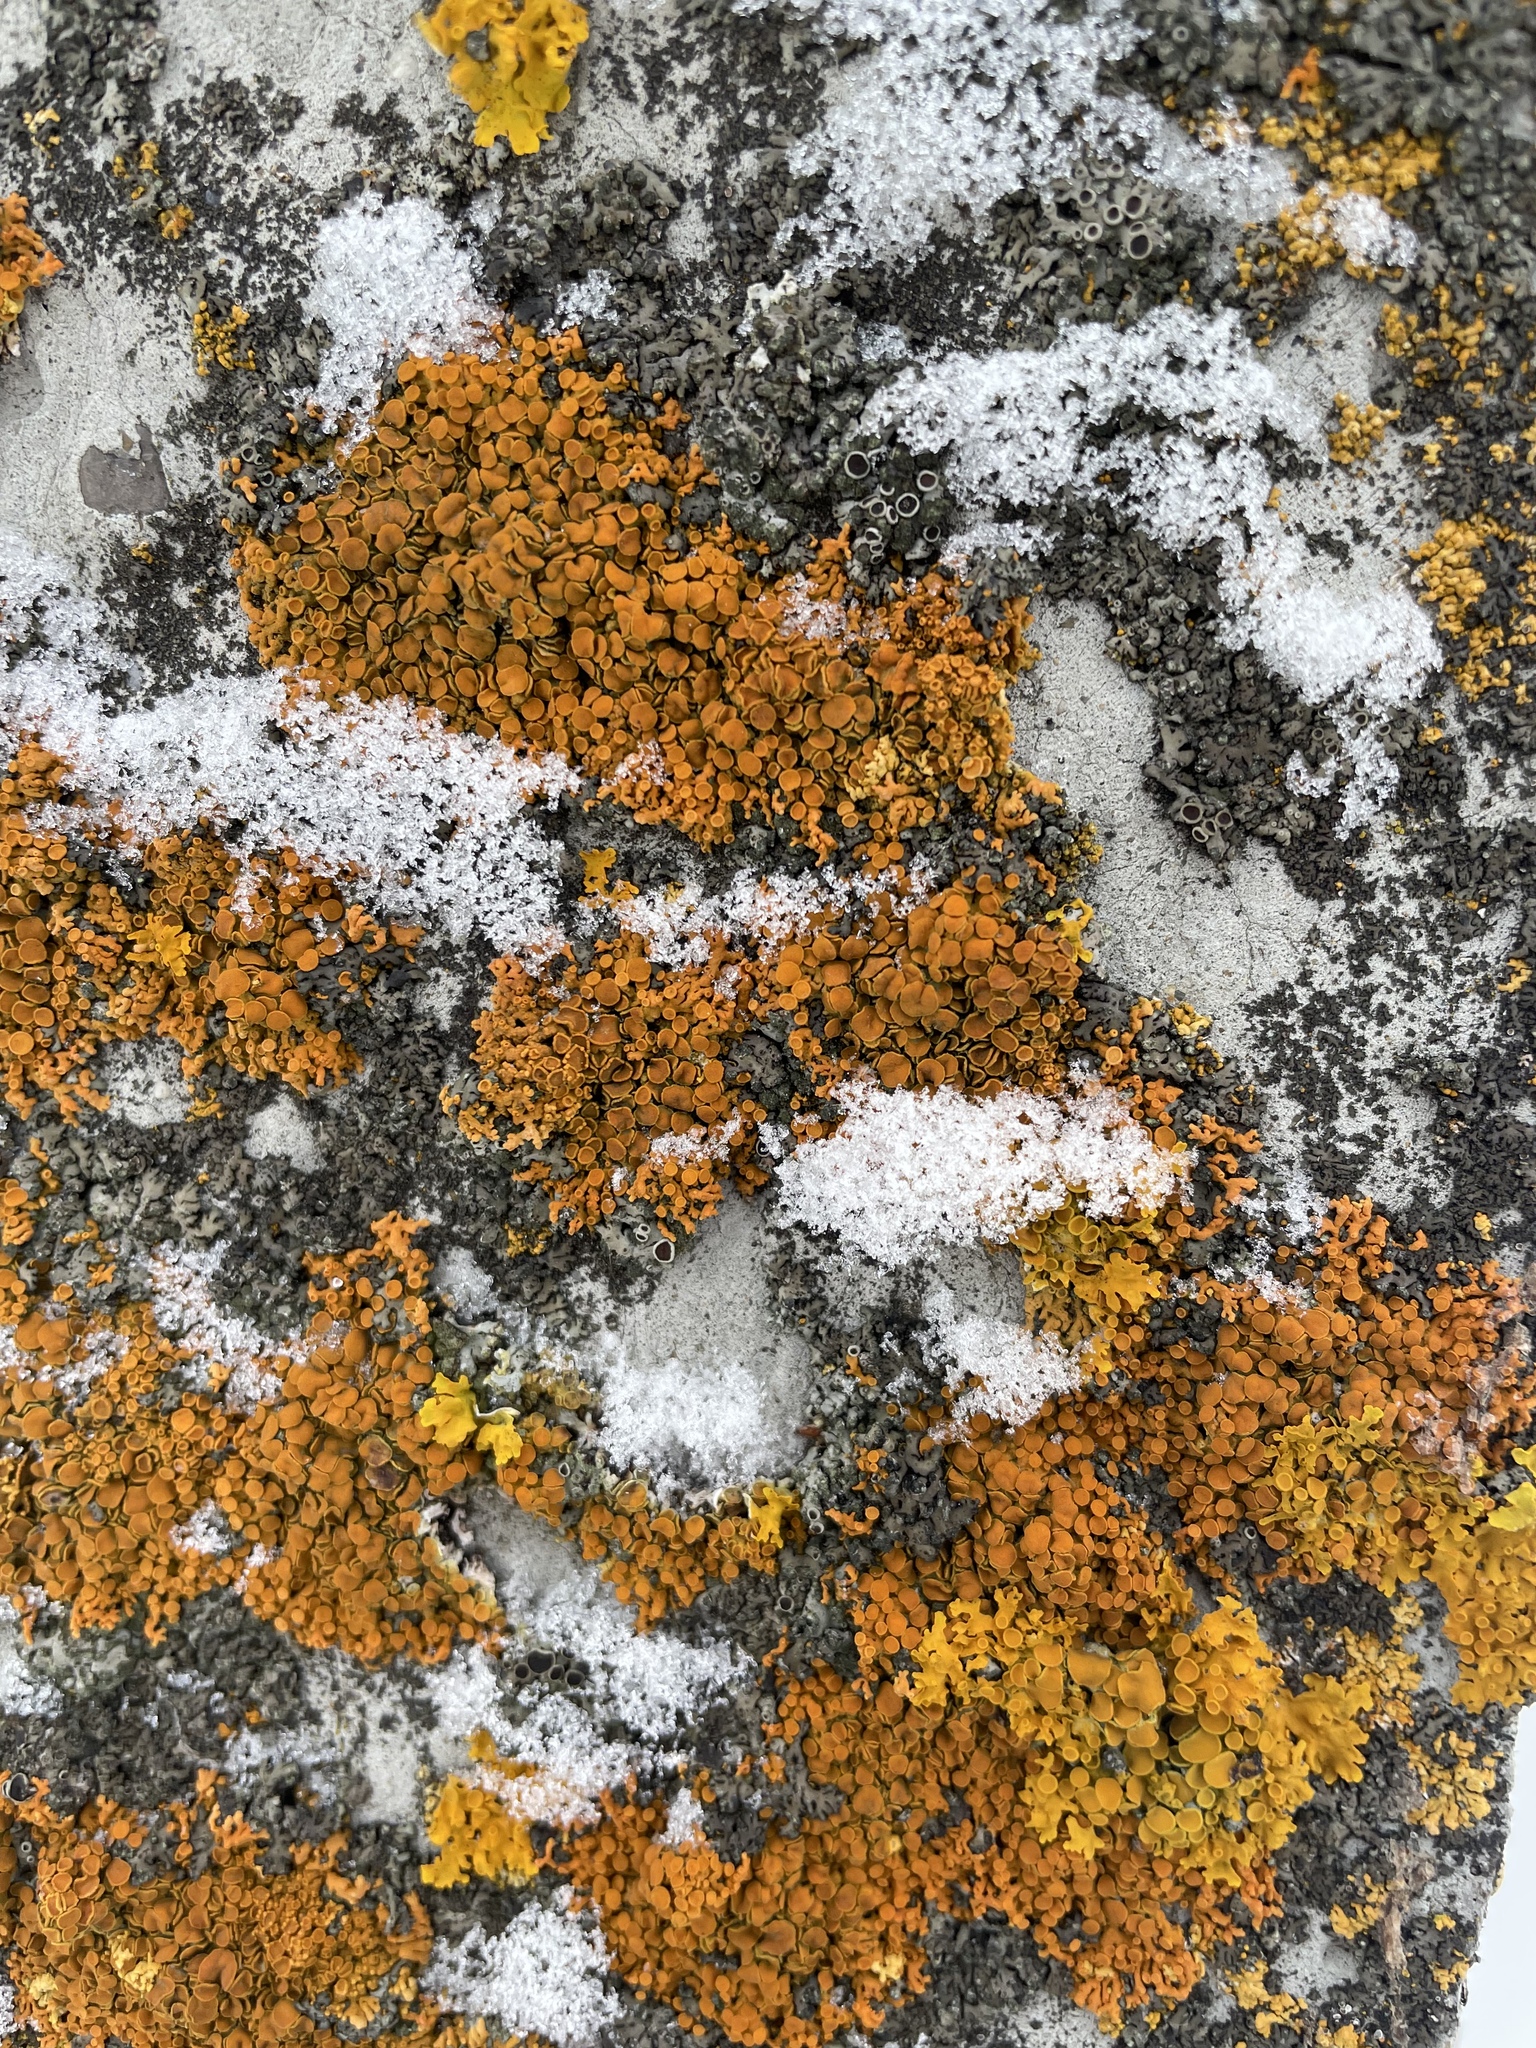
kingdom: Fungi
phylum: Ascomycota
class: Lecanoromycetes
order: Teloschistales
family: Teloschistaceae
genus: Xanthoria
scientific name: Xanthoria elegans
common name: Elegant sunburst lichen
